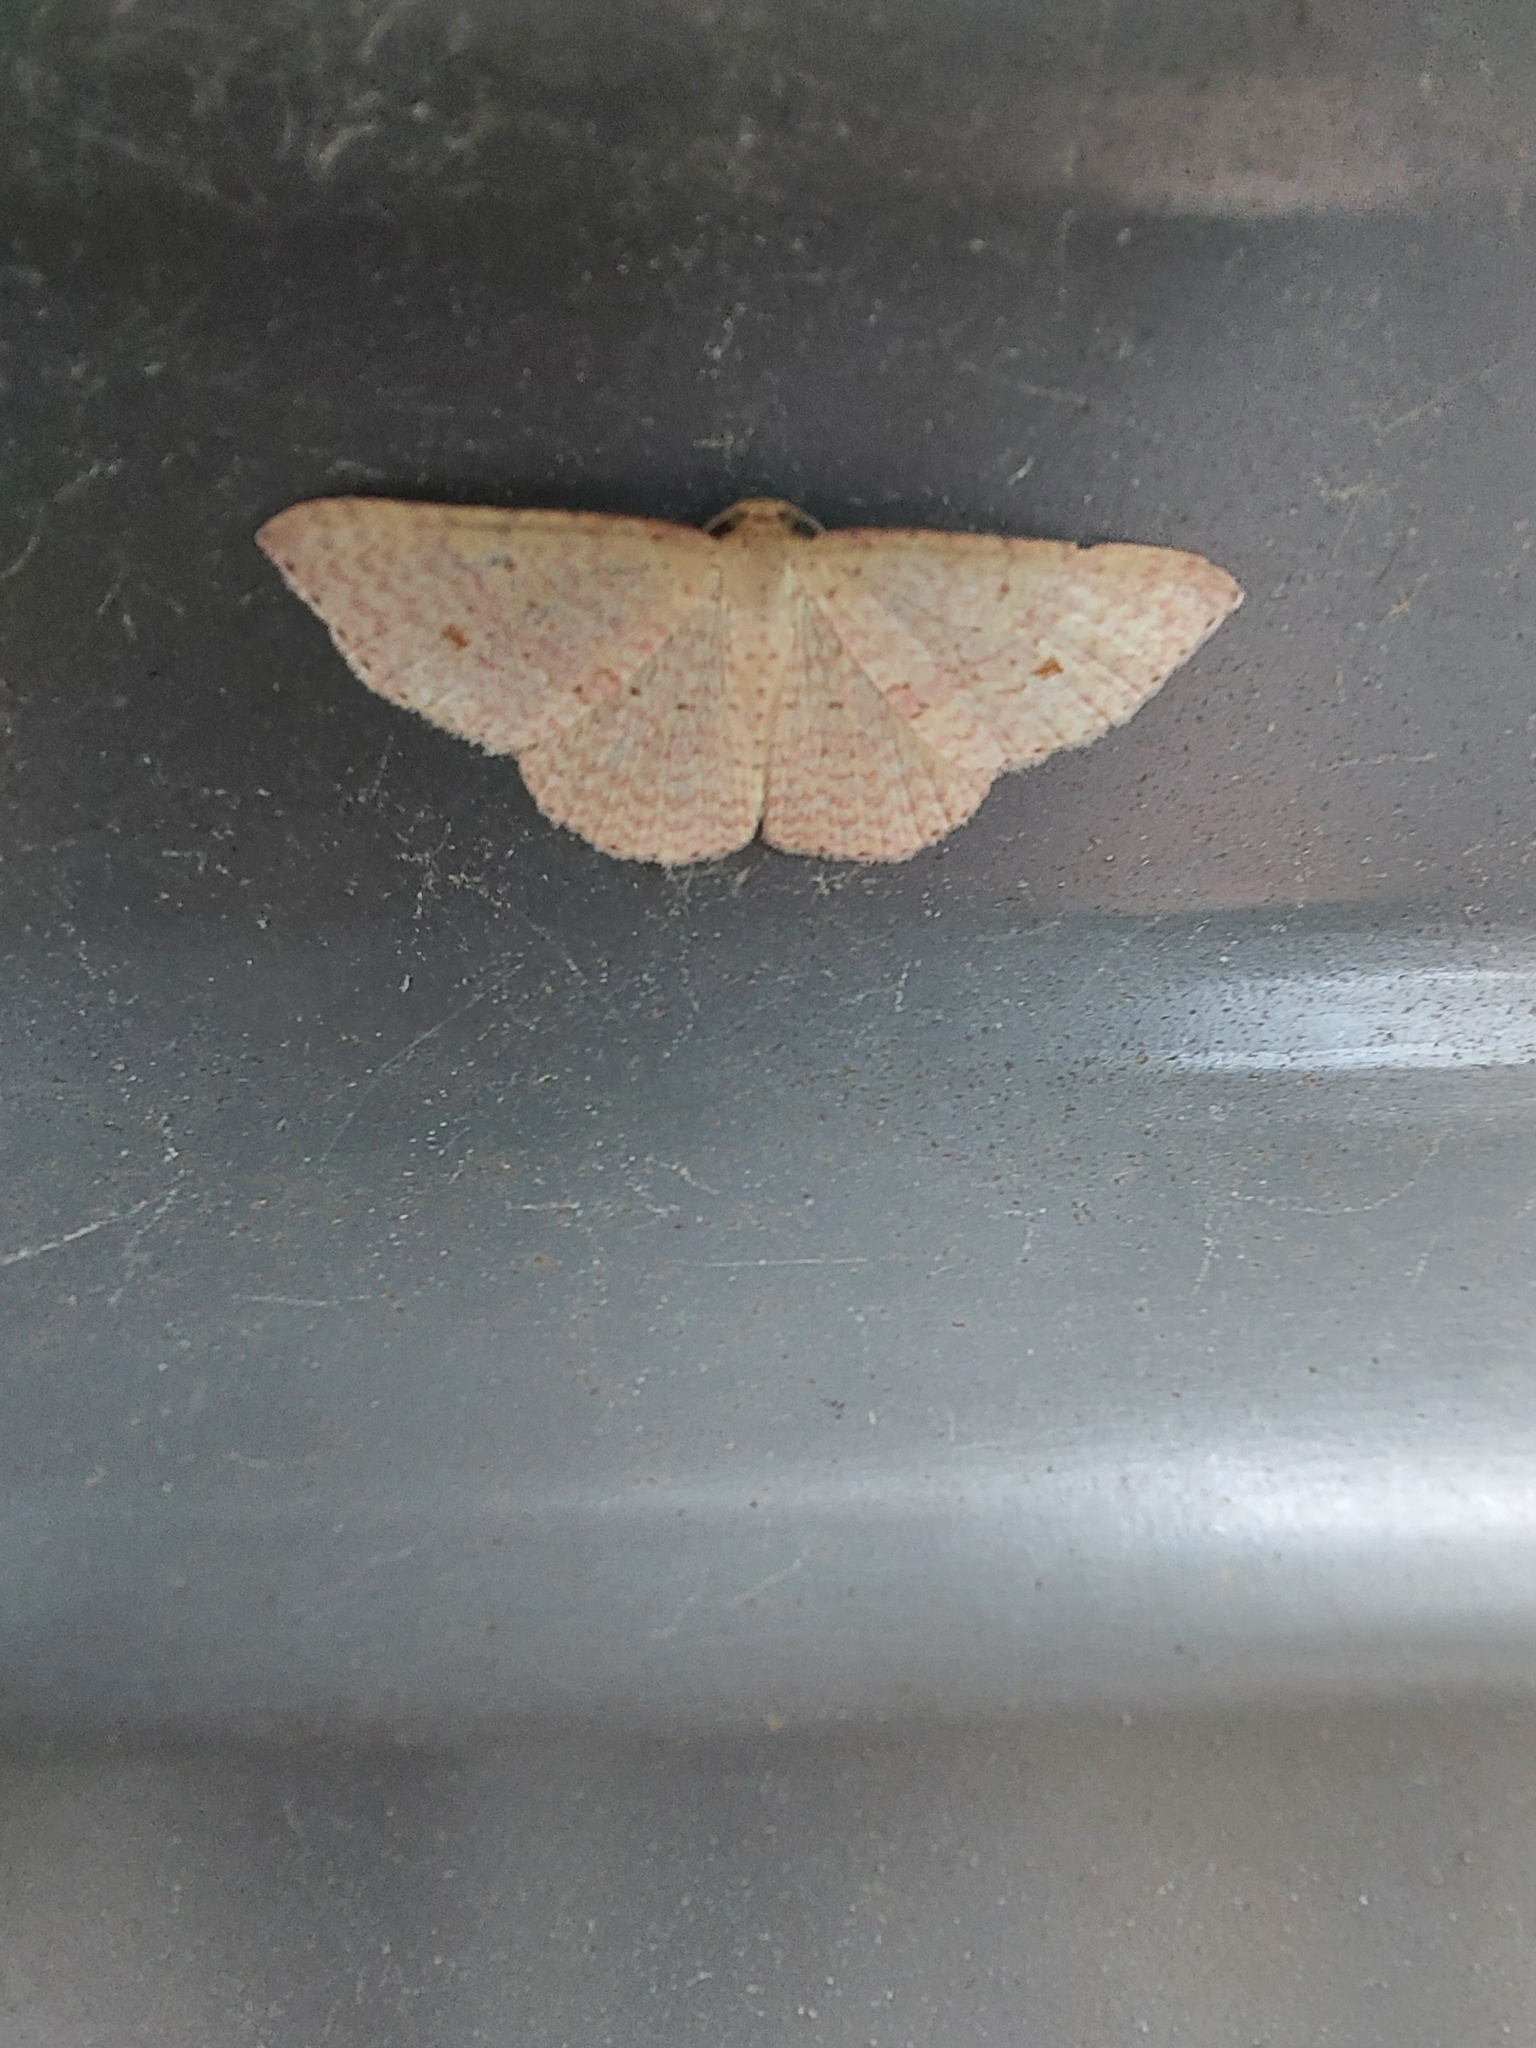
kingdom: Animalia
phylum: Arthropoda
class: Insecta
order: Lepidoptera
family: Geometridae
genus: Epicyme
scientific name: Epicyme rubropunctaria
